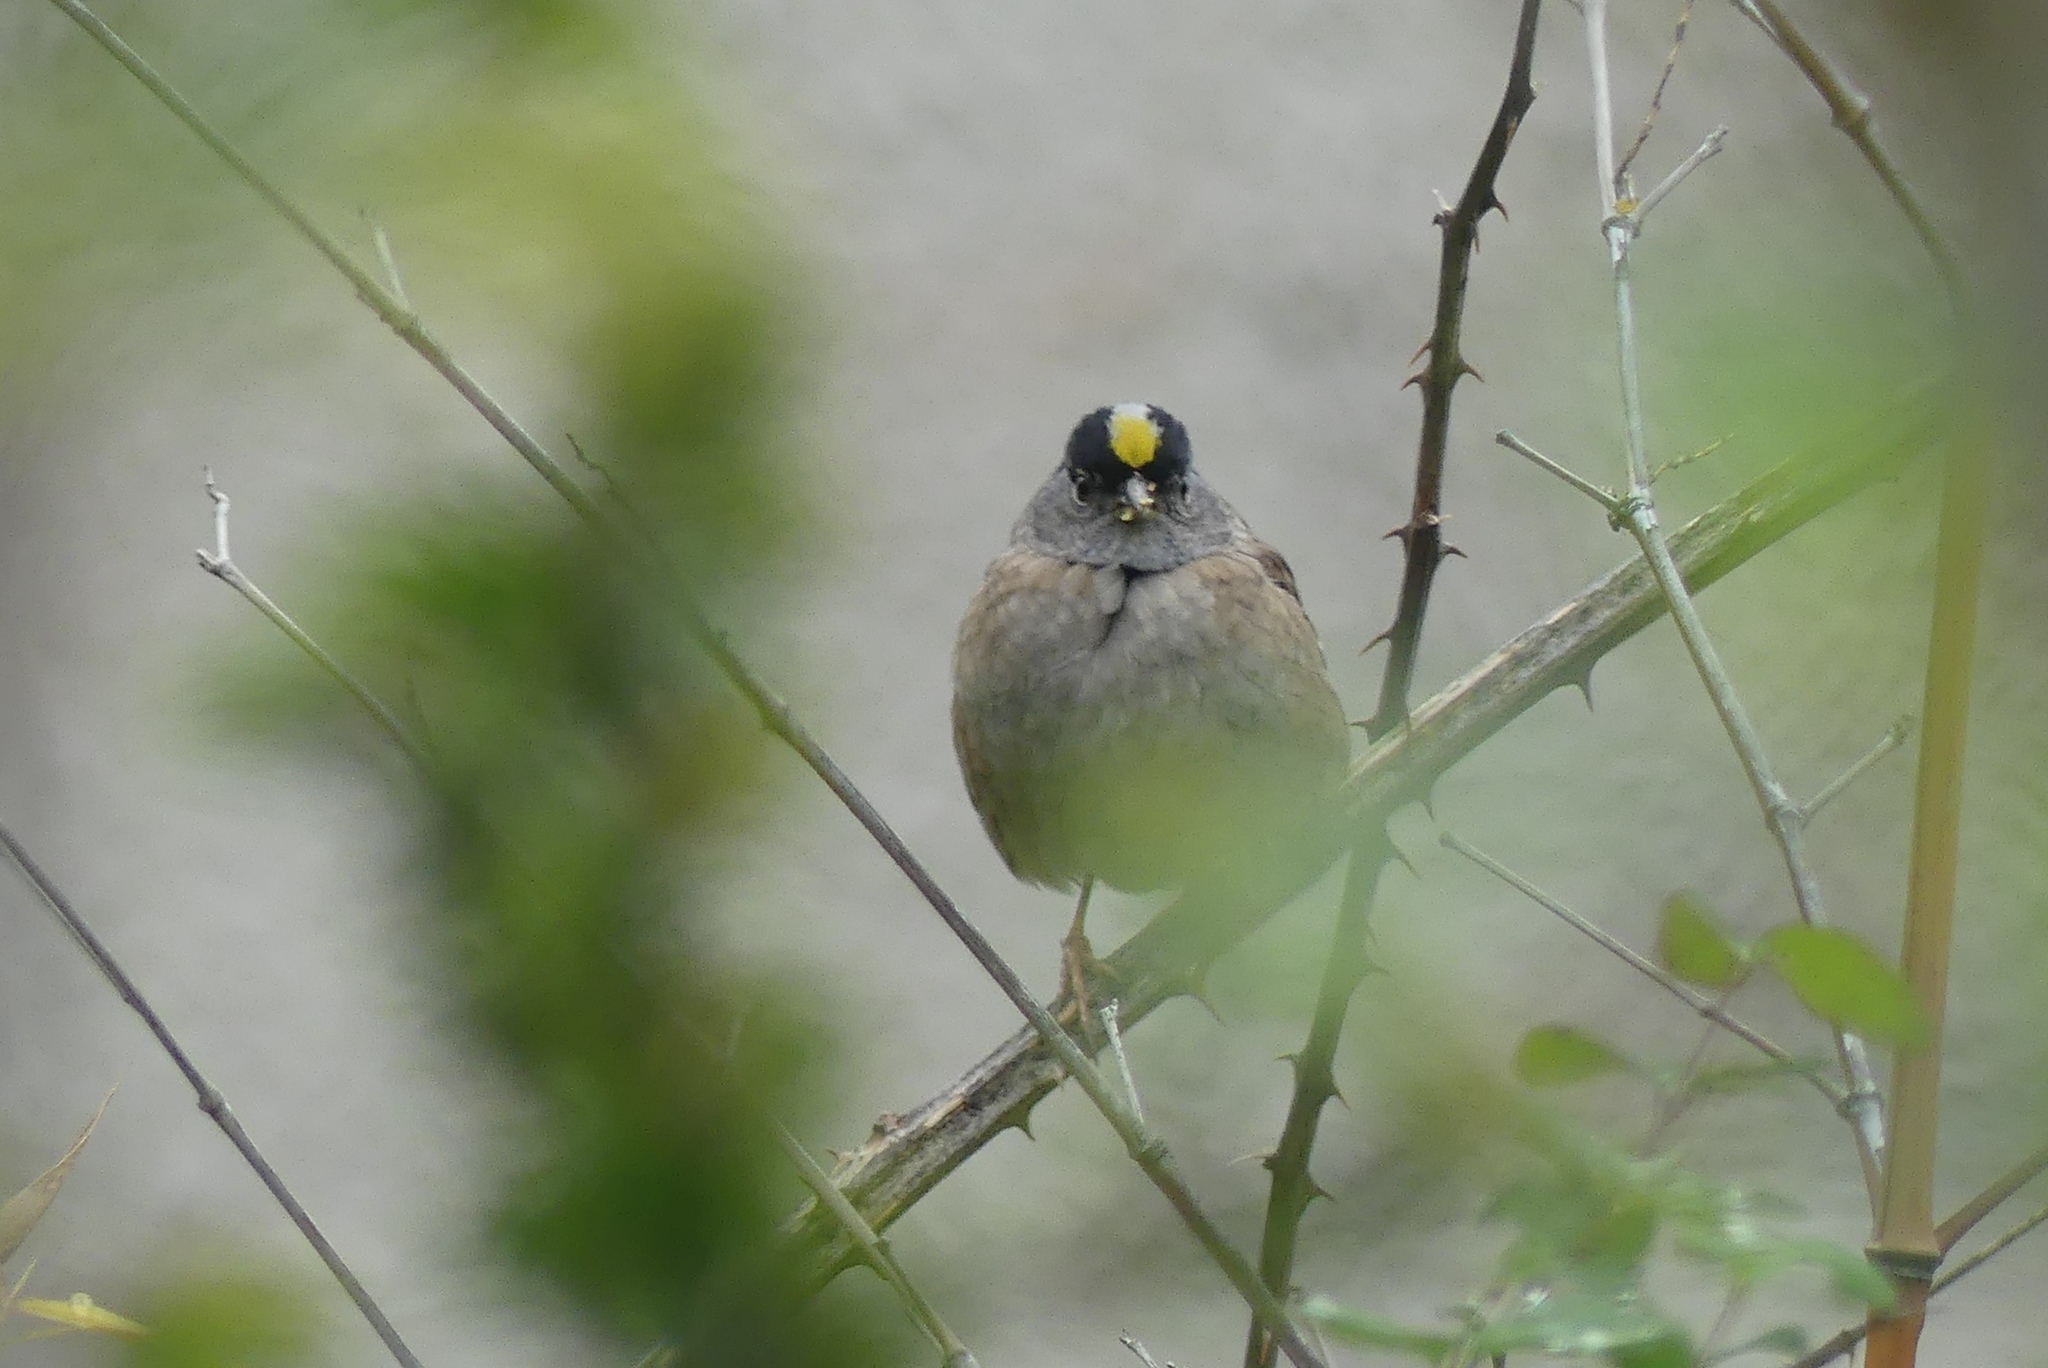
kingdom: Animalia
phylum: Chordata
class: Aves
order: Passeriformes
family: Passerellidae
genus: Zonotrichia
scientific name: Zonotrichia atricapilla
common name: Golden-crowned sparrow
